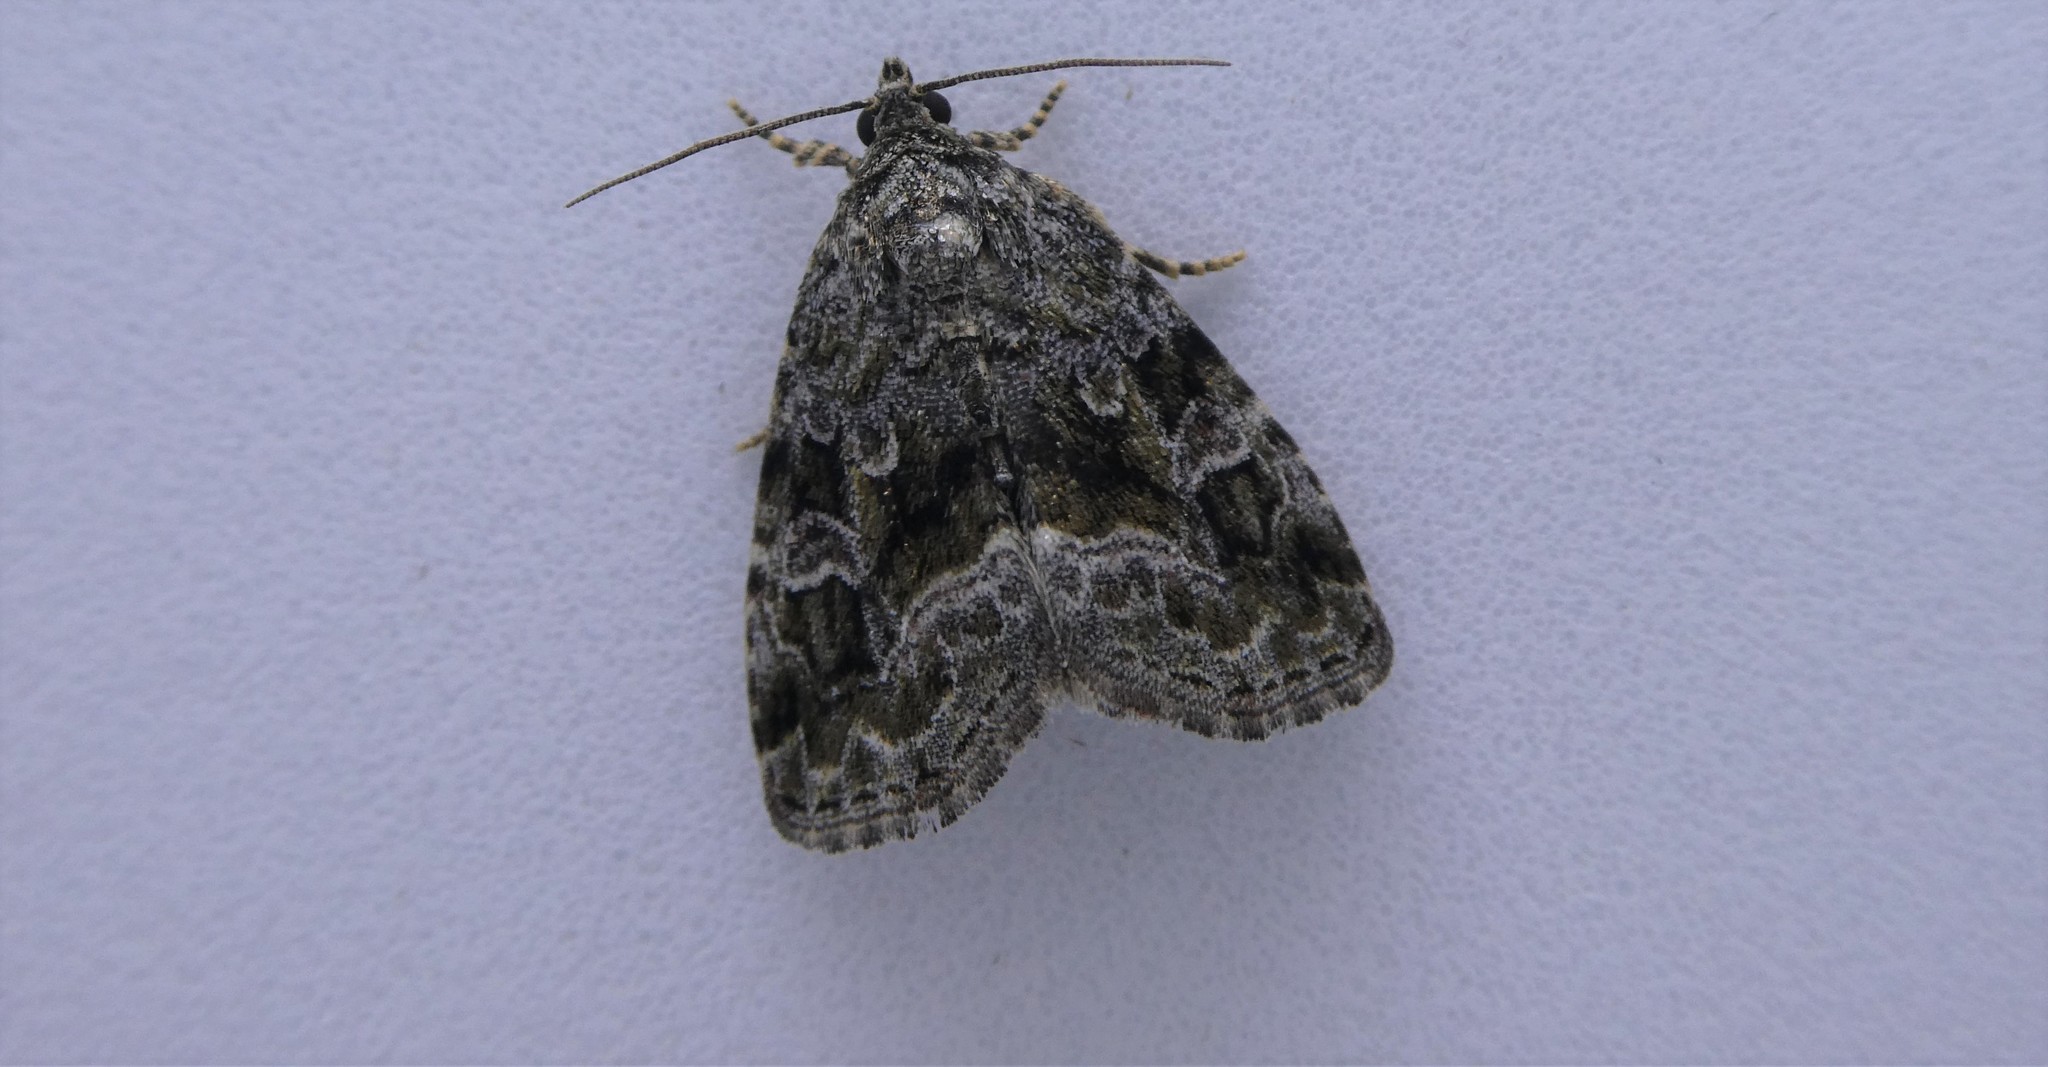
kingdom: Animalia
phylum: Arthropoda
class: Insecta
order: Lepidoptera
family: Noctuidae
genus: Protodeltote
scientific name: Protodeltote muscosula
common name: Large mossy glyph
